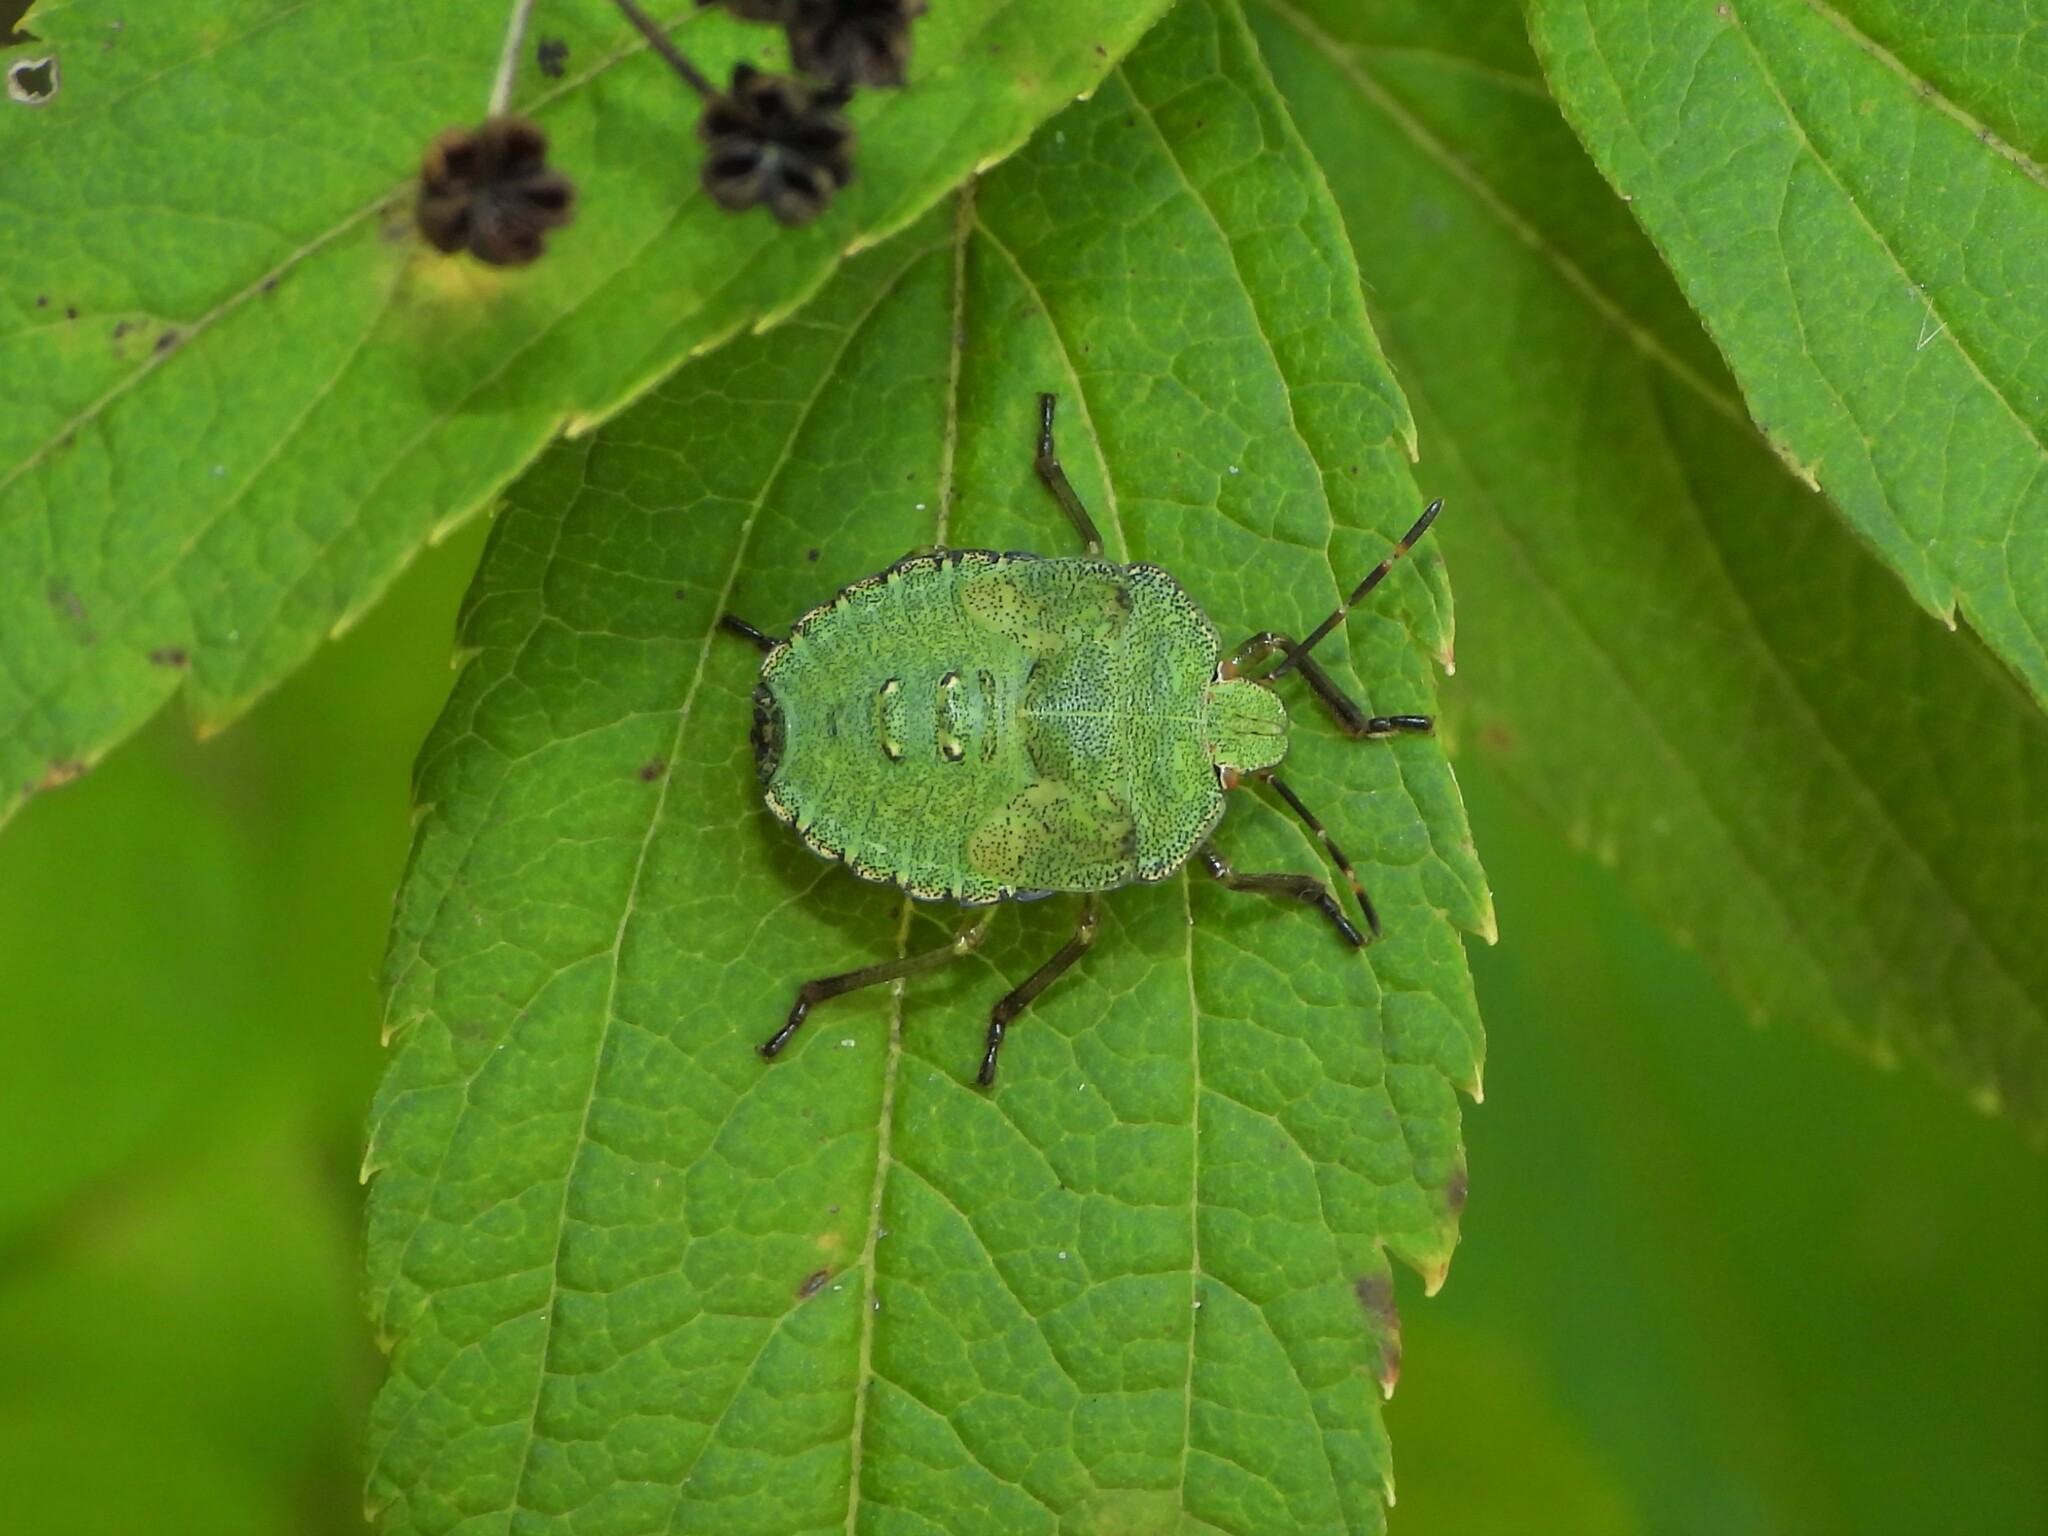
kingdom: Animalia
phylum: Arthropoda
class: Insecta
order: Hemiptera
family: Pentatomidae
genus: Palomena
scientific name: Palomena prasina
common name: Green shieldbug
